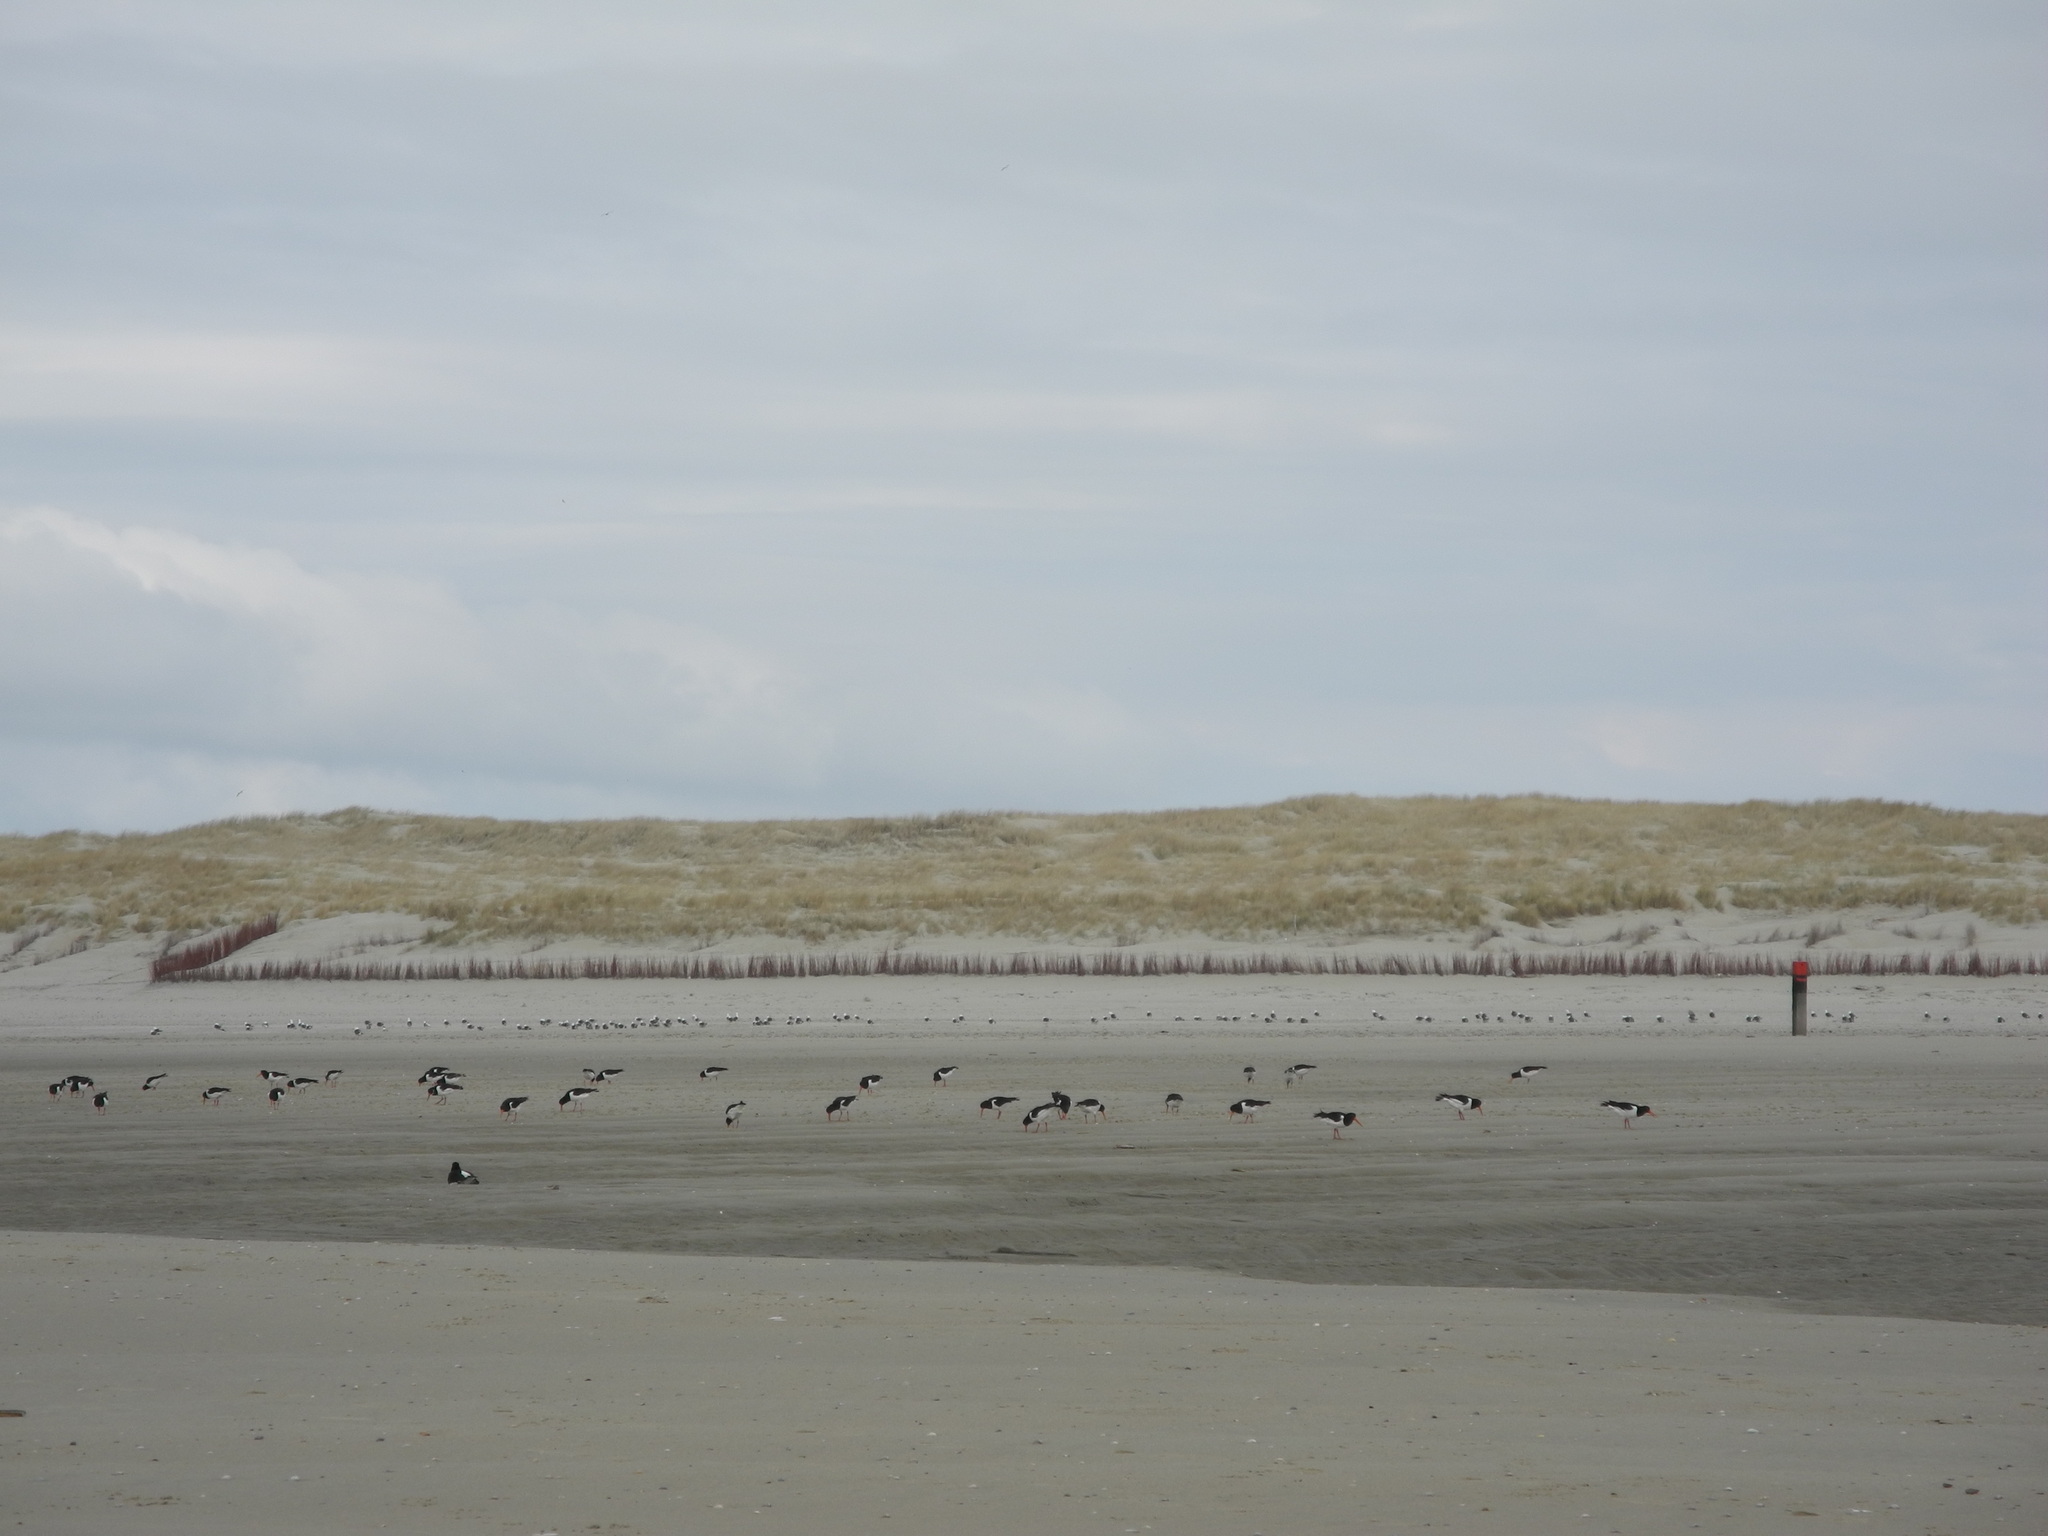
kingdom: Animalia
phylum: Chordata
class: Aves
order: Charadriiformes
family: Haematopodidae
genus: Haematopus
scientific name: Haematopus ostralegus
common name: Eurasian oystercatcher
